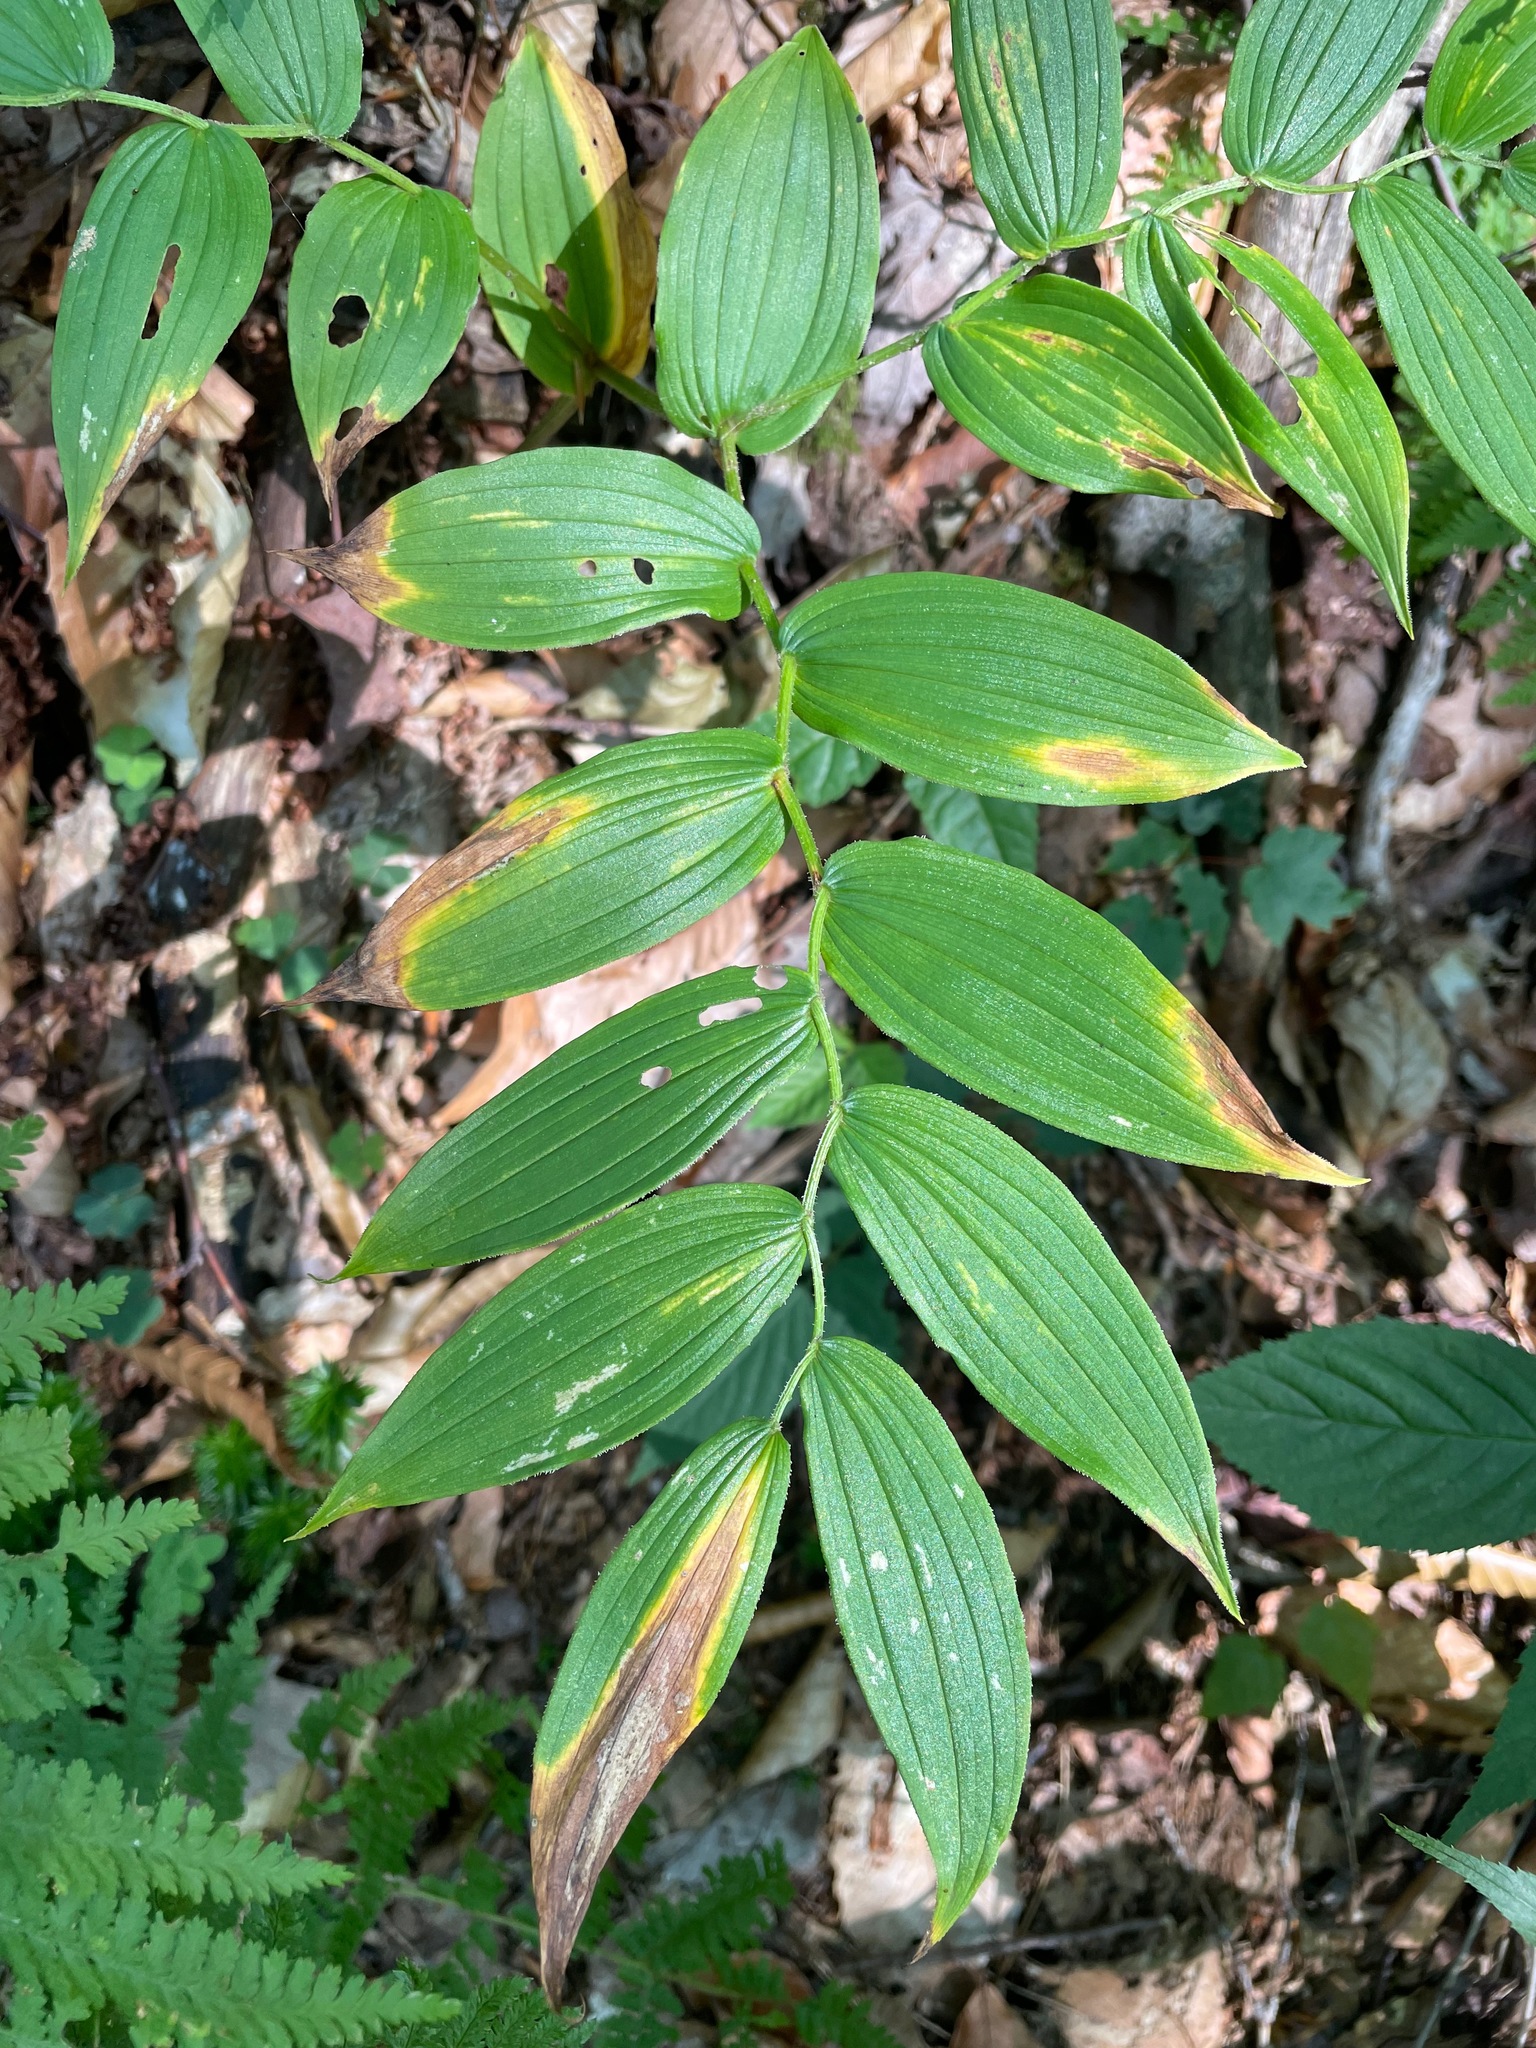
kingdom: Plantae
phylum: Tracheophyta
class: Liliopsida
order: Liliales
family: Liliaceae
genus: Streptopus
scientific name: Streptopus lanceolatus
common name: Rose mandarin
